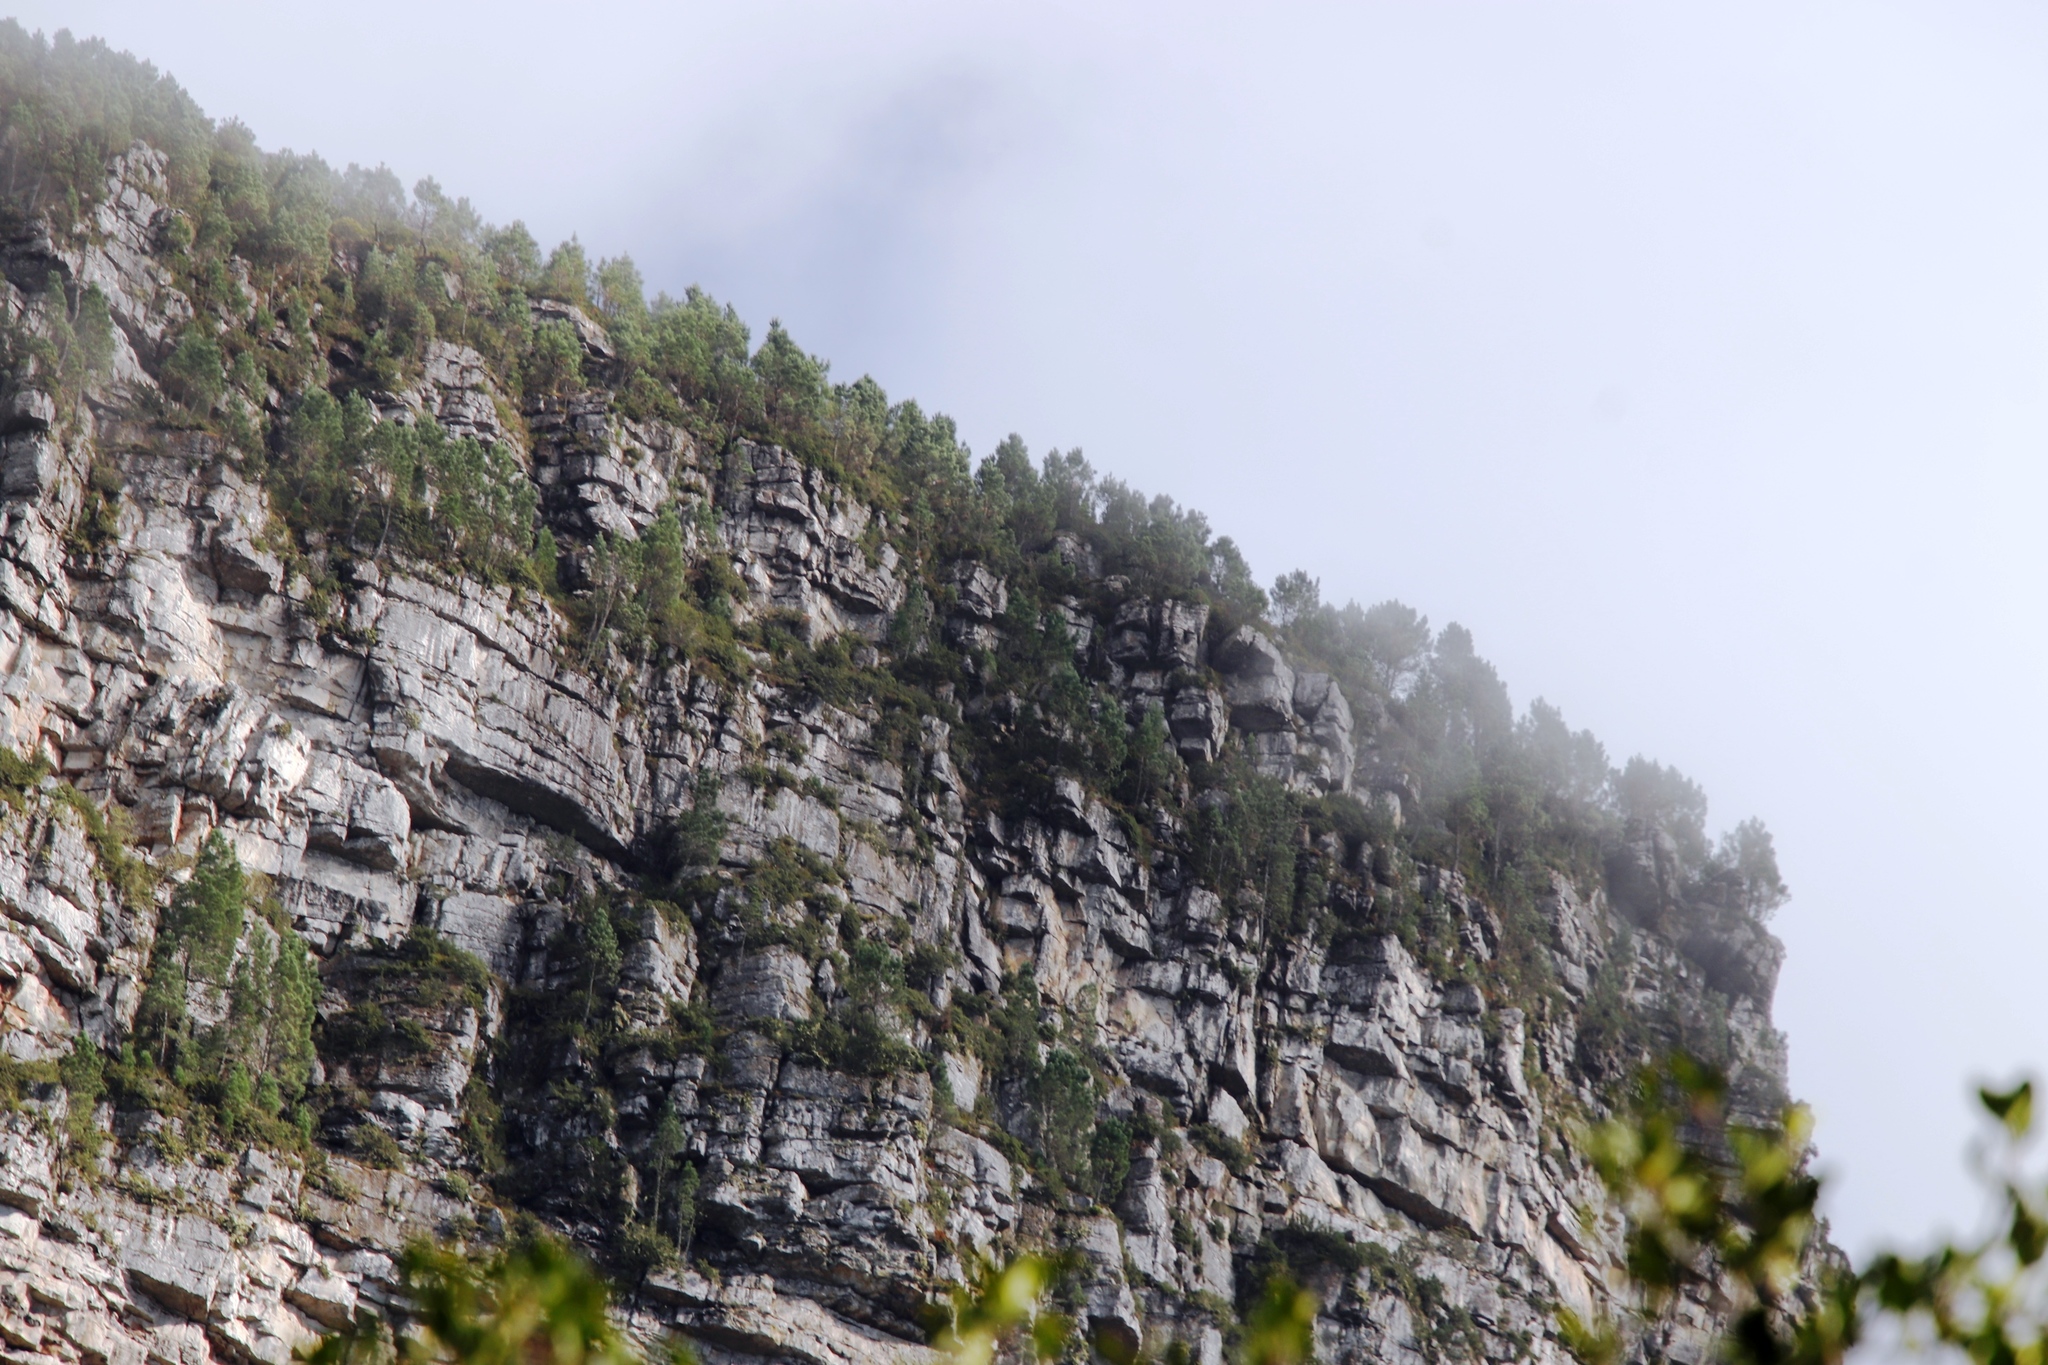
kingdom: Plantae
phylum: Tracheophyta
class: Pinopsida
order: Pinales
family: Pinaceae
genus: Pinus
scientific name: Pinus pinaster
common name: Maritime pine
